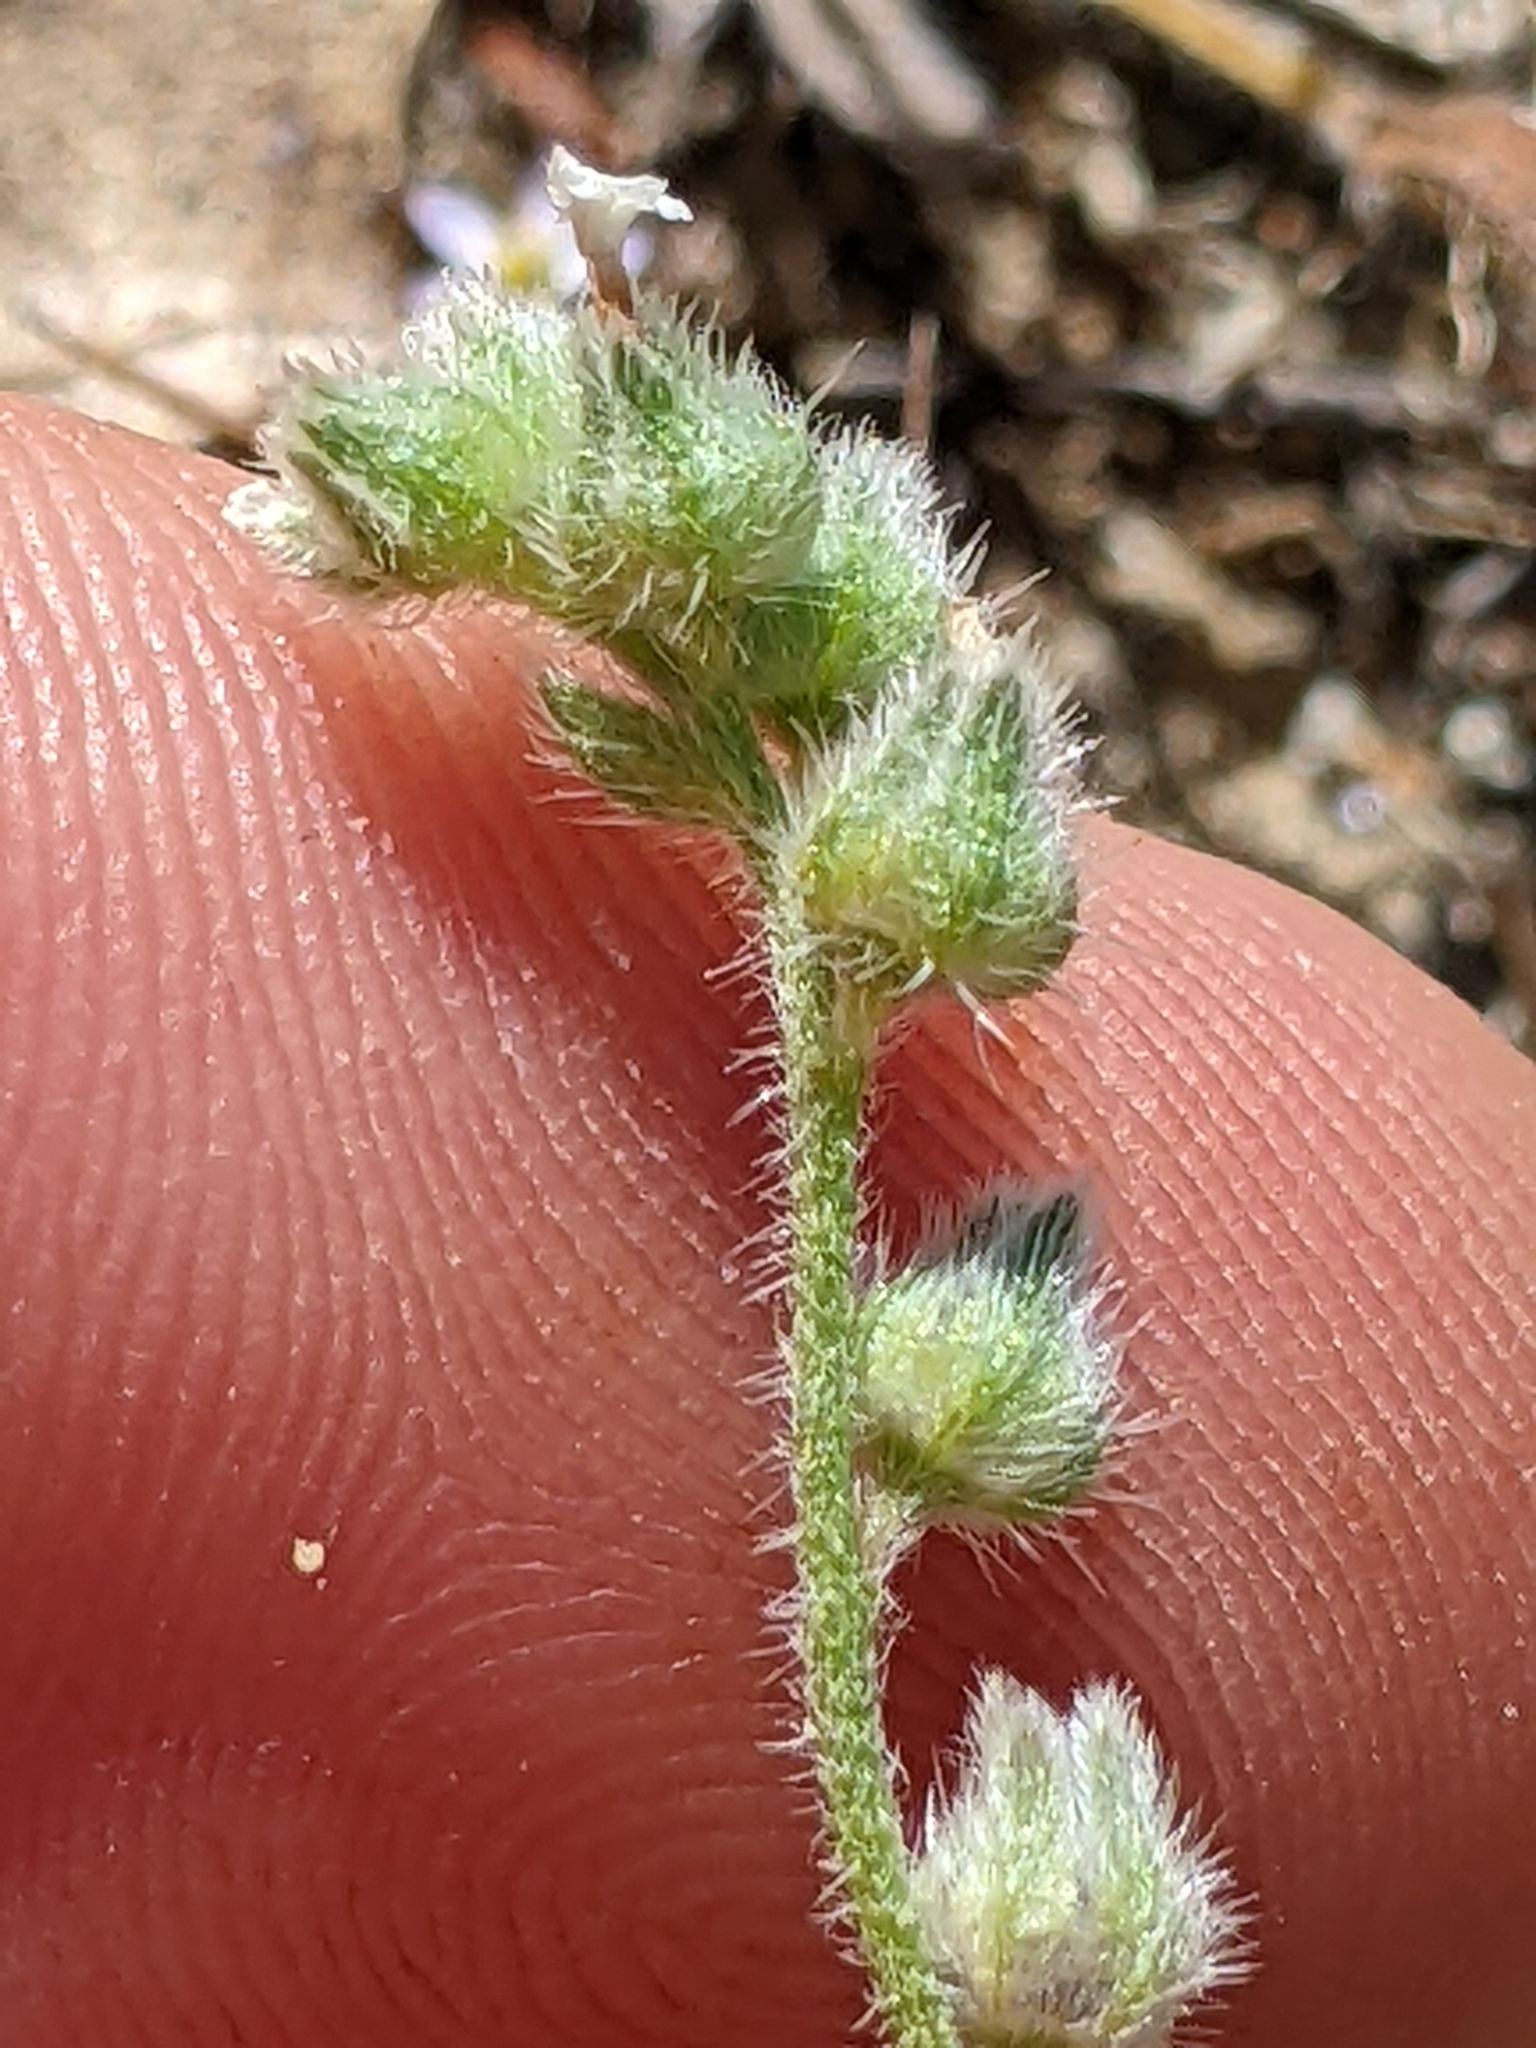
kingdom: Plantae
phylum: Tracheophyta
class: Magnoliopsida
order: Boraginales
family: Boraginaceae
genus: Plagiobothrys
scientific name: Plagiobothrys tenellus
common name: Pacific popcornflower
